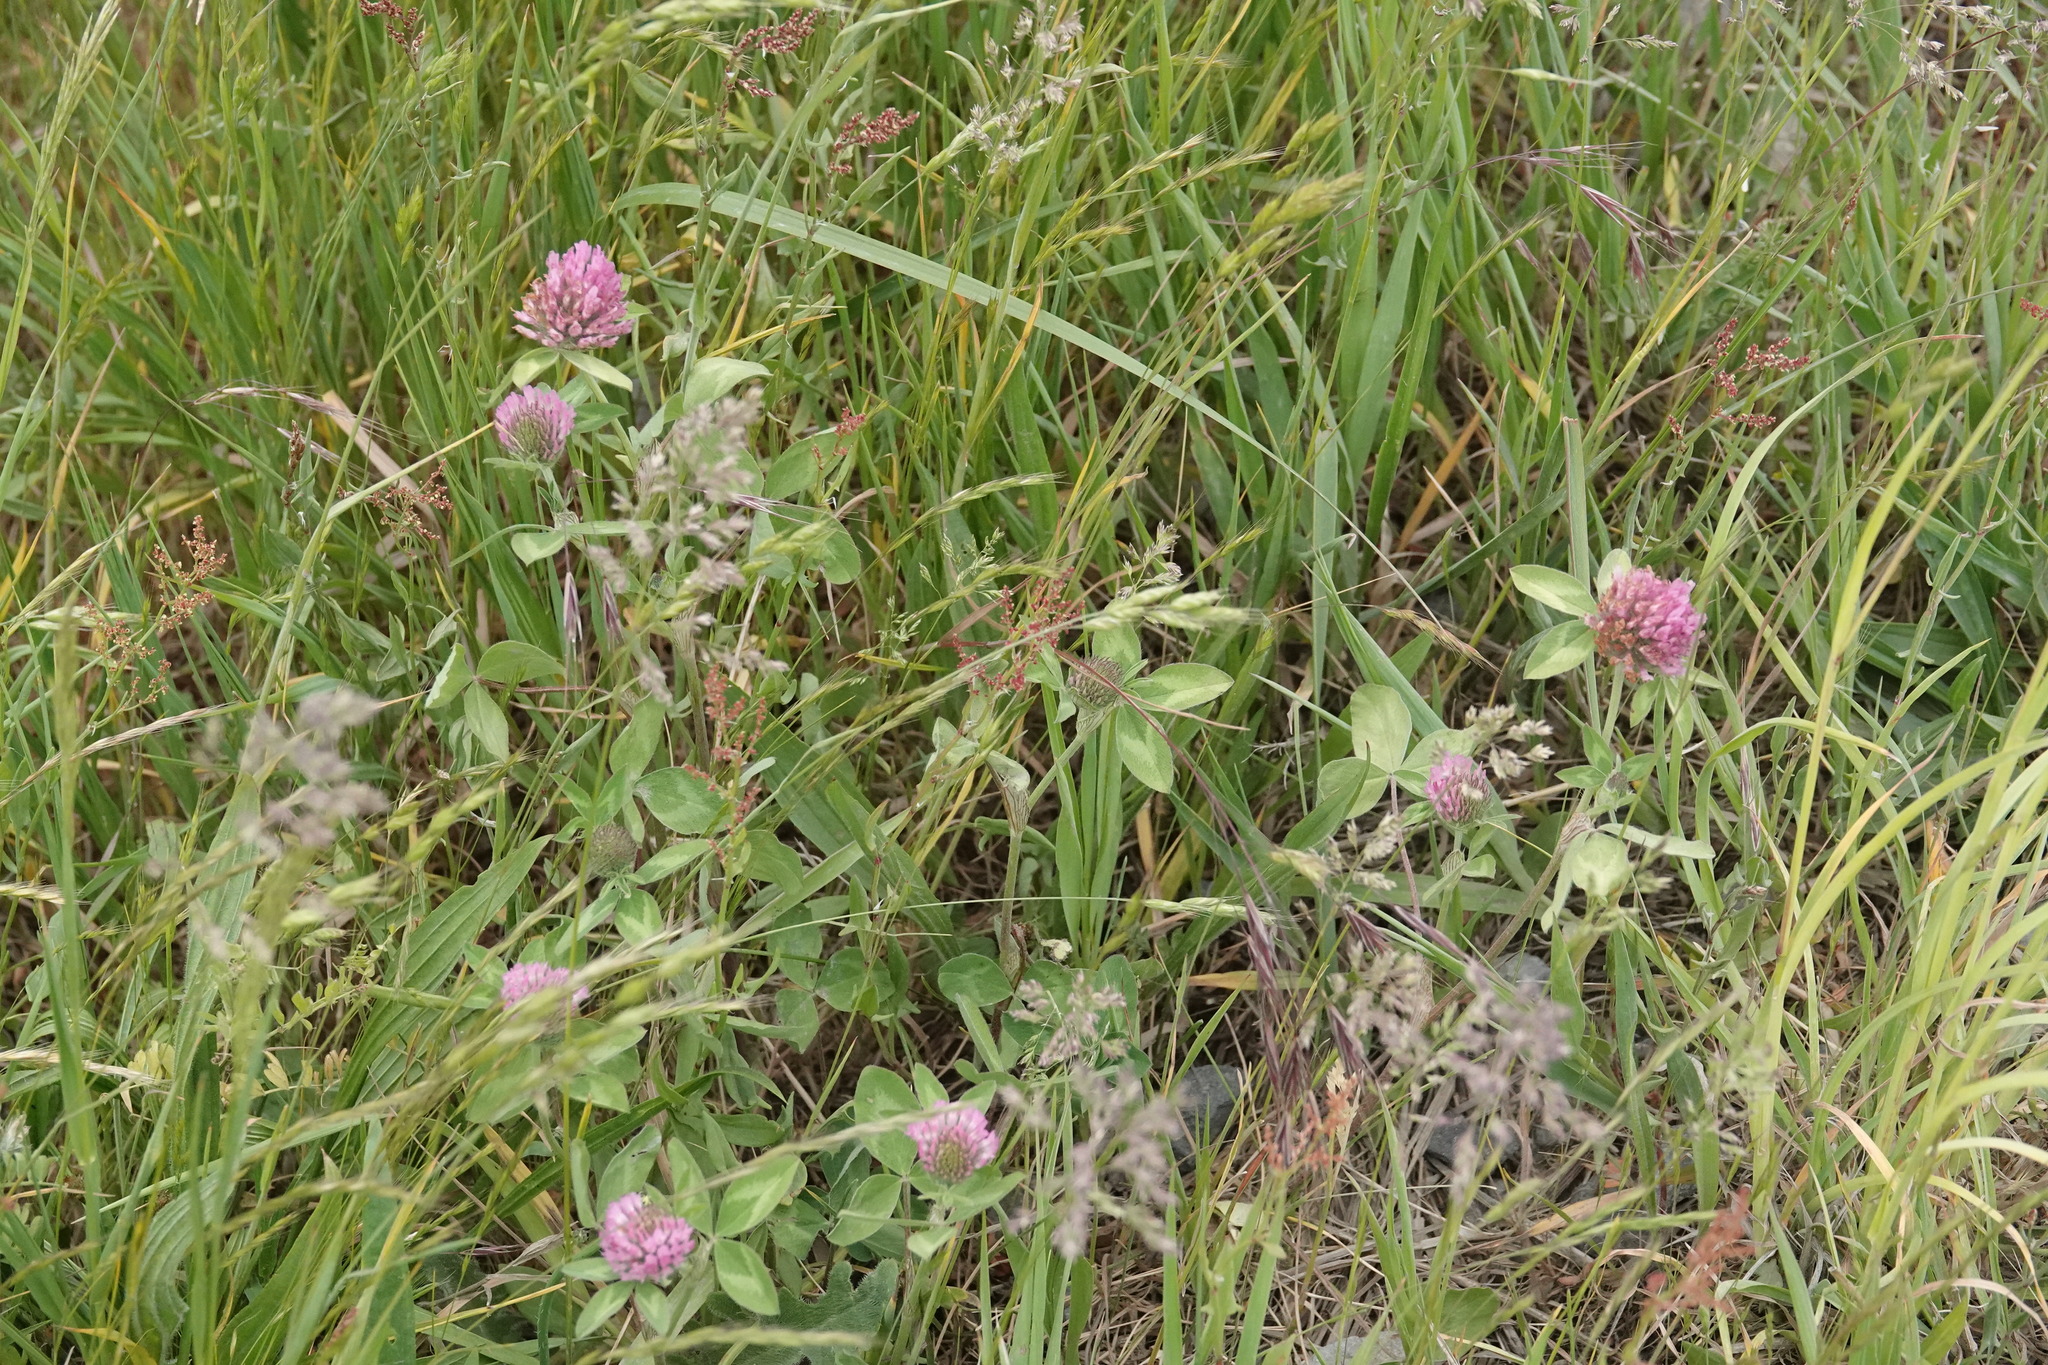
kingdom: Plantae
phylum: Tracheophyta
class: Magnoliopsida
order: Fabales
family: Fabaceae
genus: Trifolium
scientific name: Trifolium pratense
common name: Red clover
